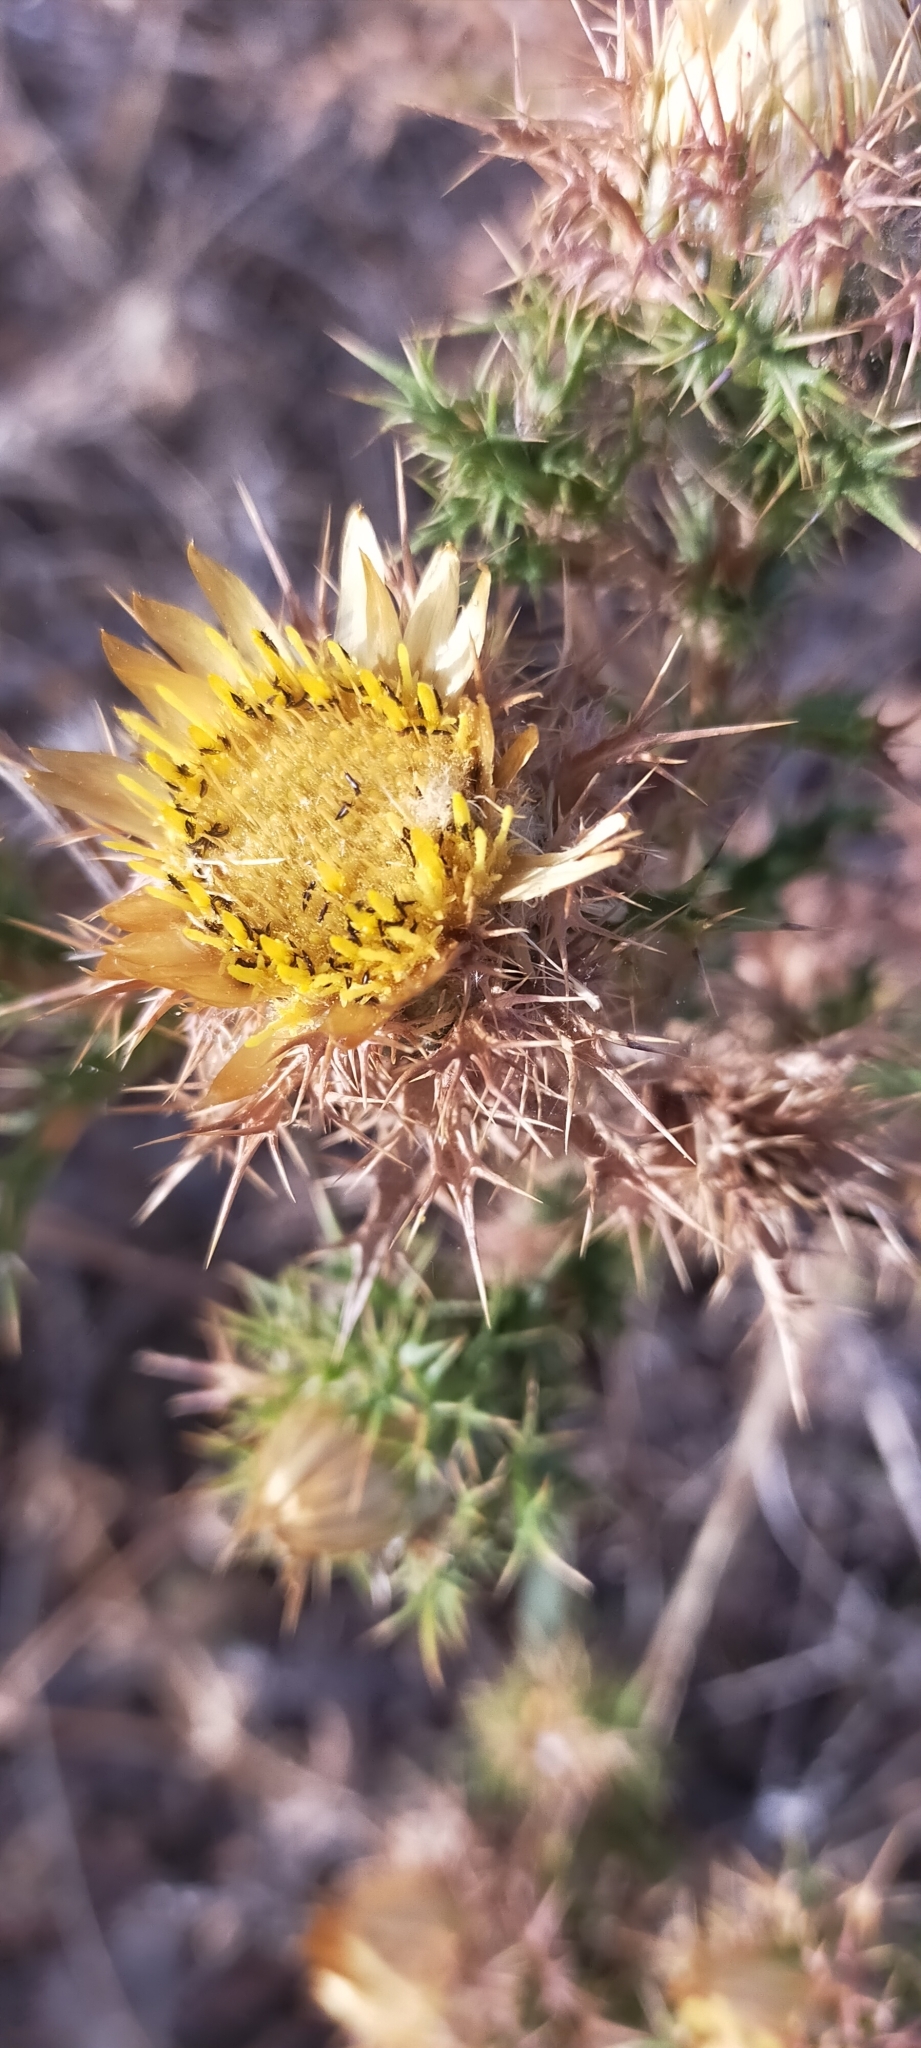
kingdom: Plantae
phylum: Tracheophyta
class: Magnoliopsida
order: Asterales
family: Asteraceae
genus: Carlina
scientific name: Carlina hispanica
